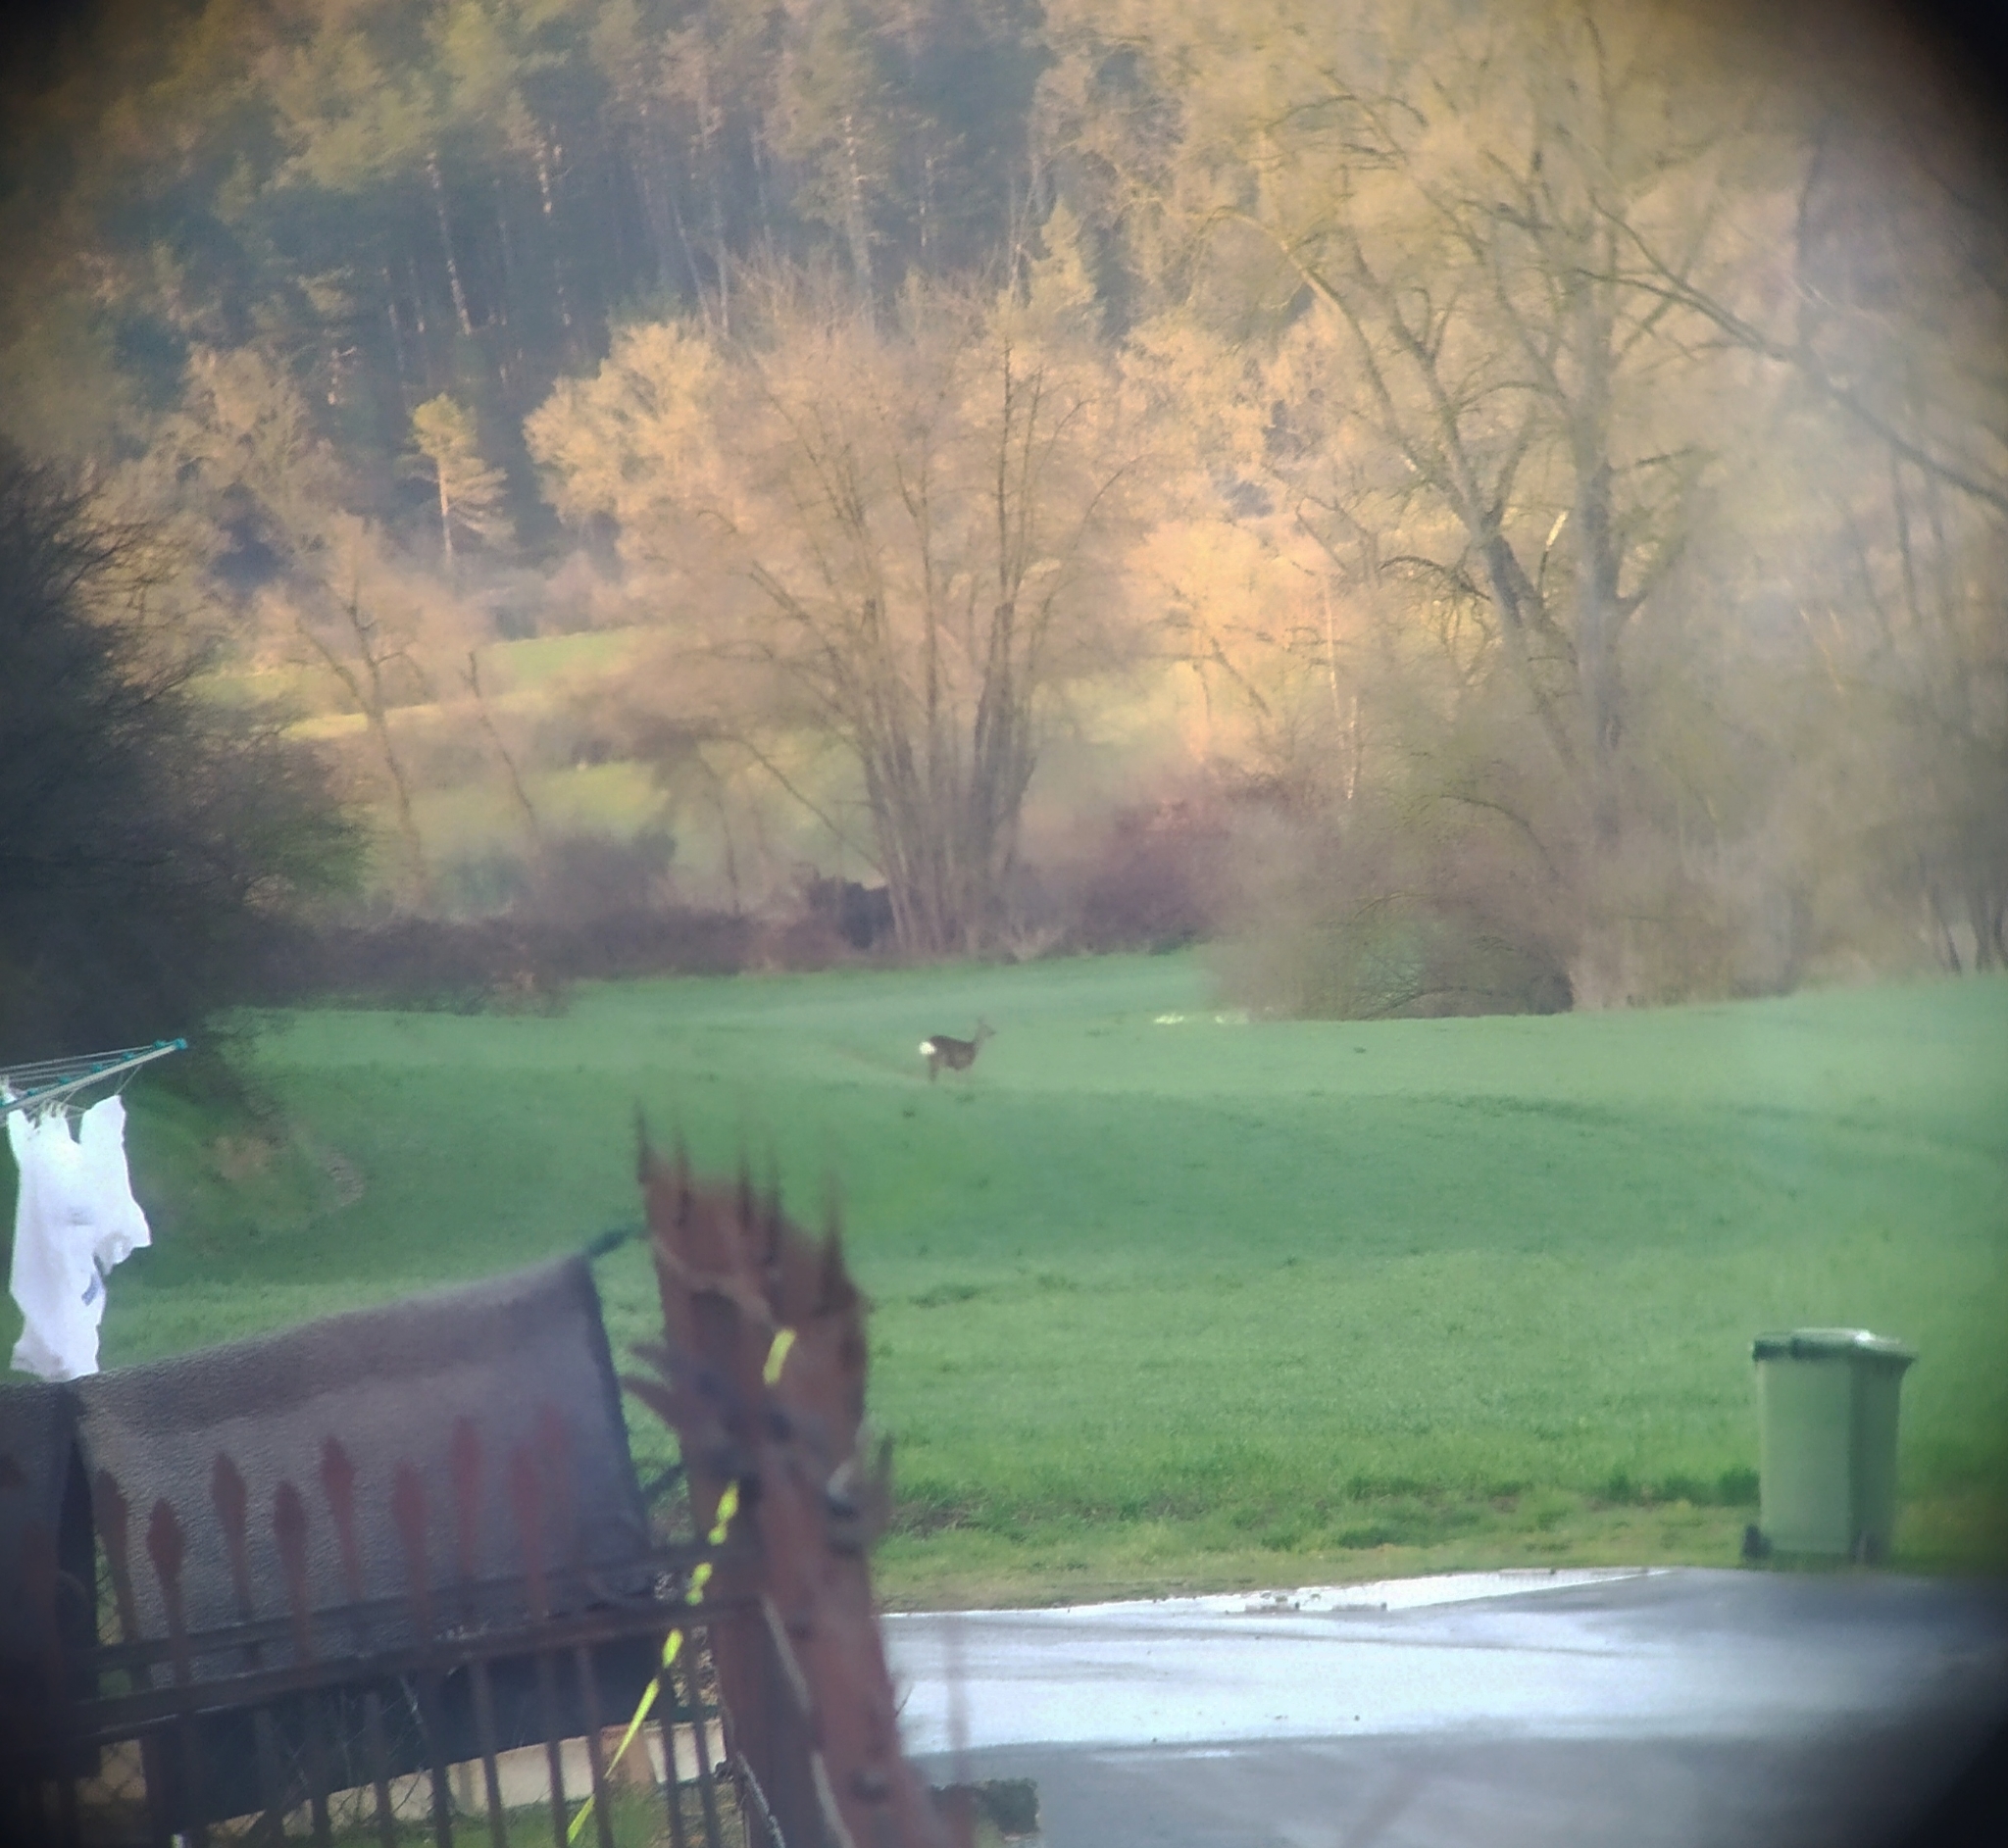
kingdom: Animalia
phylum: Chordata
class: Mammalia
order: Artiodactyla
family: Cervidae
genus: Capreolus
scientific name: Capreolus capreolus
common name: Western roe deer
